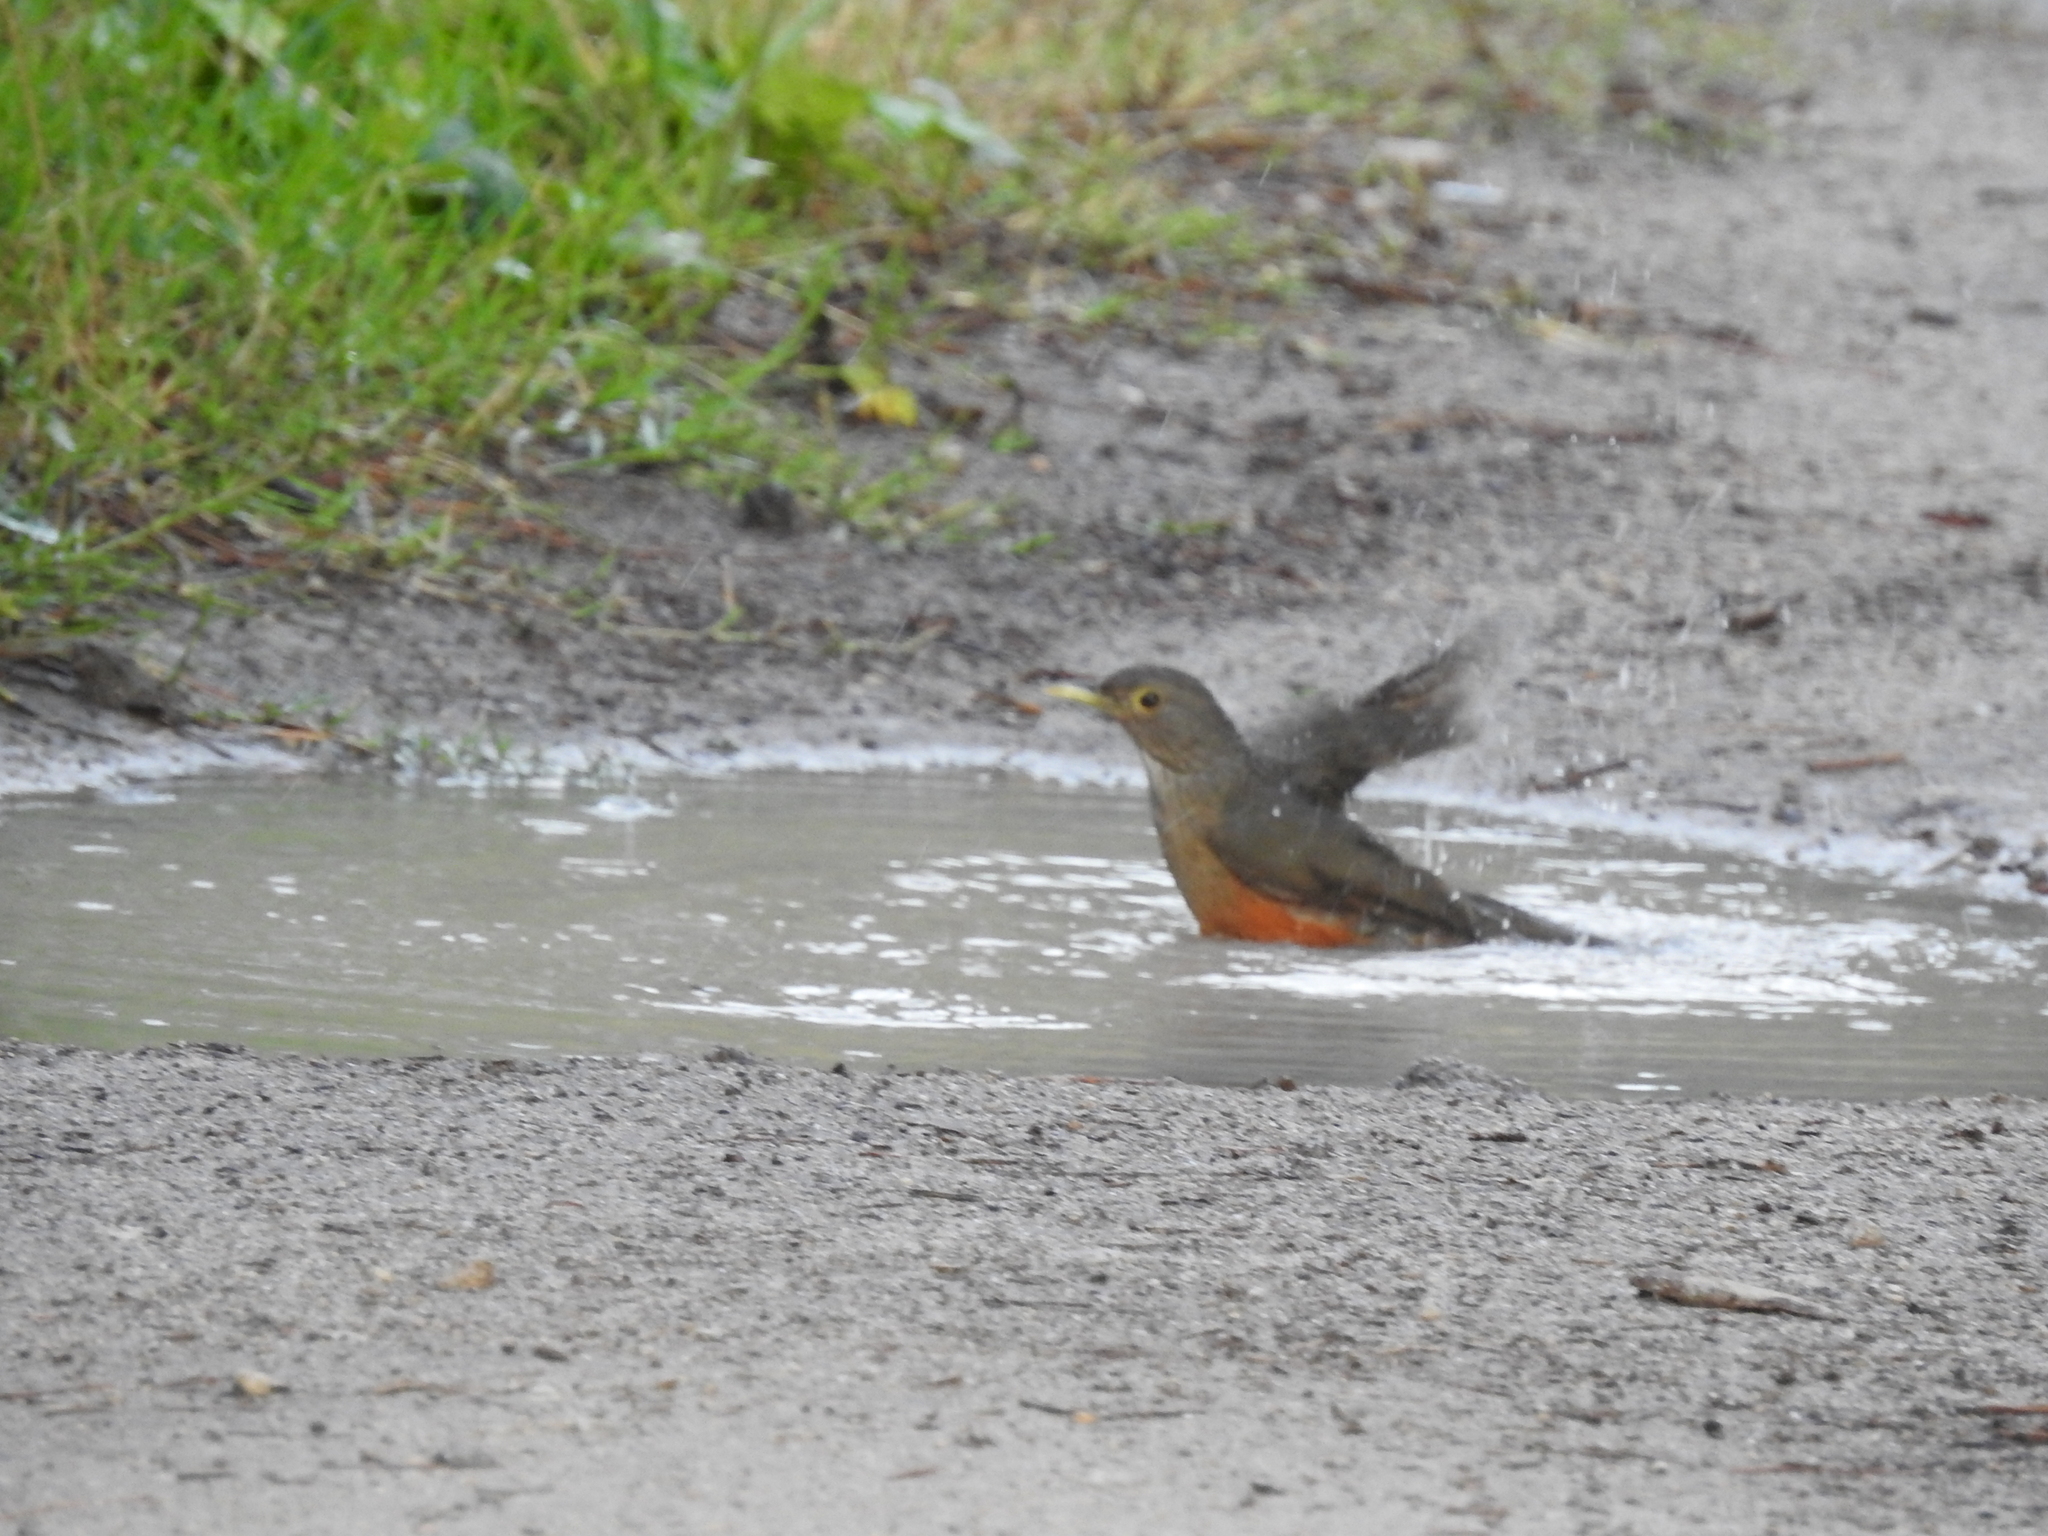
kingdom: Animalia
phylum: Chordata
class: Aves
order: Passeriformes
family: Turdidae
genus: Turdus
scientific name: Turdus rufiventris
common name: Rufous-bellied thrush
